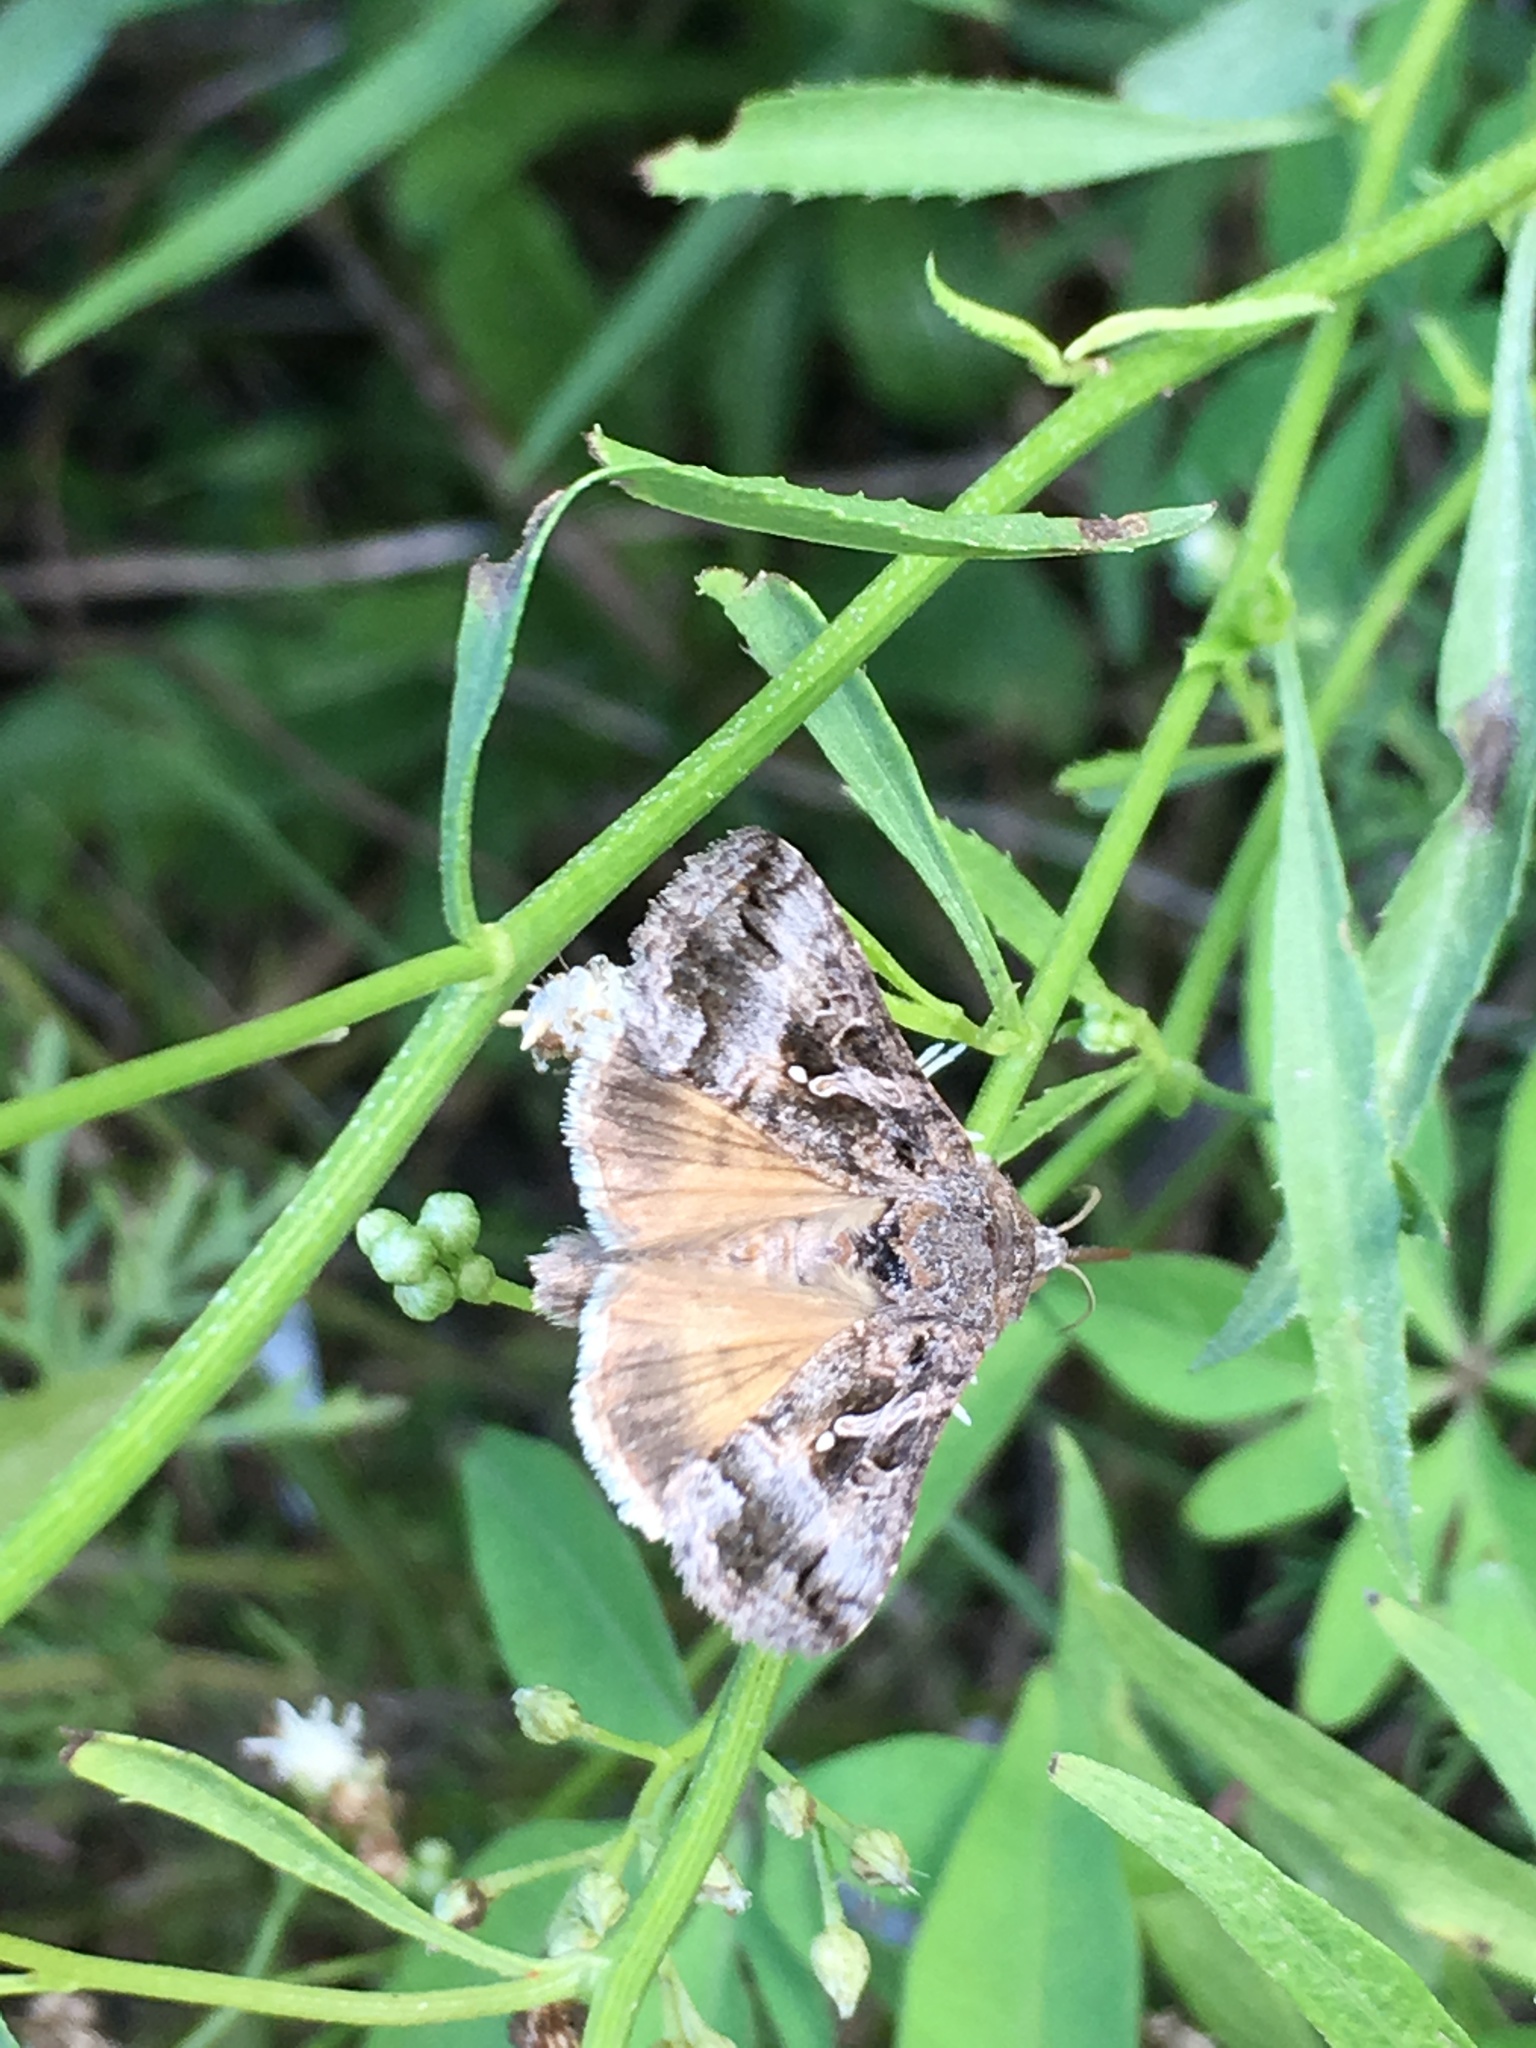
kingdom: Animalia
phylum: Arthropoda
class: Insecta
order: Lepidoptera
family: Noctuidae
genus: Rachiplusia
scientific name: Rachiplusia nu
